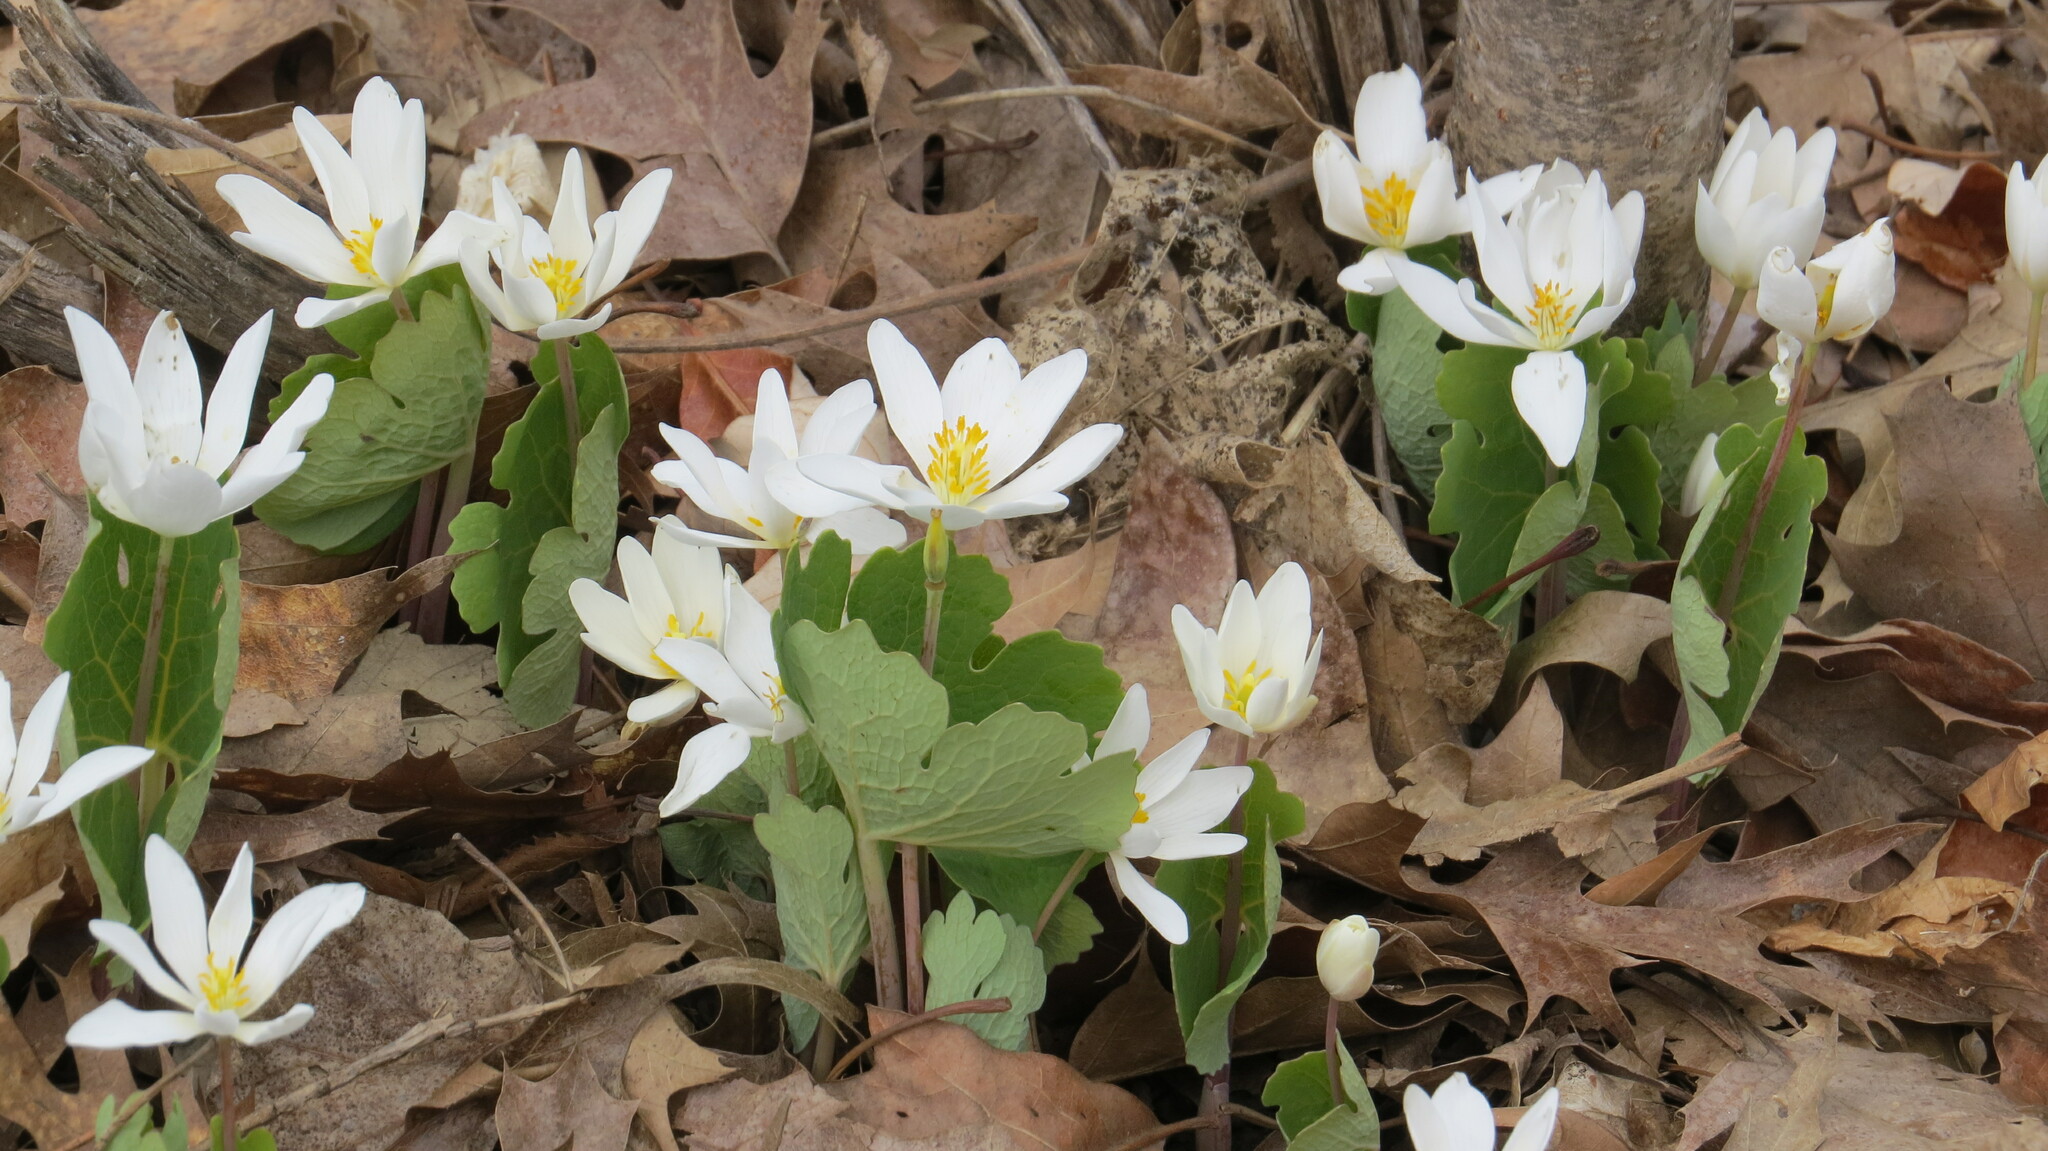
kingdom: Plantae
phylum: Tracheophyta
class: Magnoliopsida
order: Ranunculales
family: Papaveraceae
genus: Sanguinaria
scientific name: Sanguinaria canadensis
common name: Bloodroot
